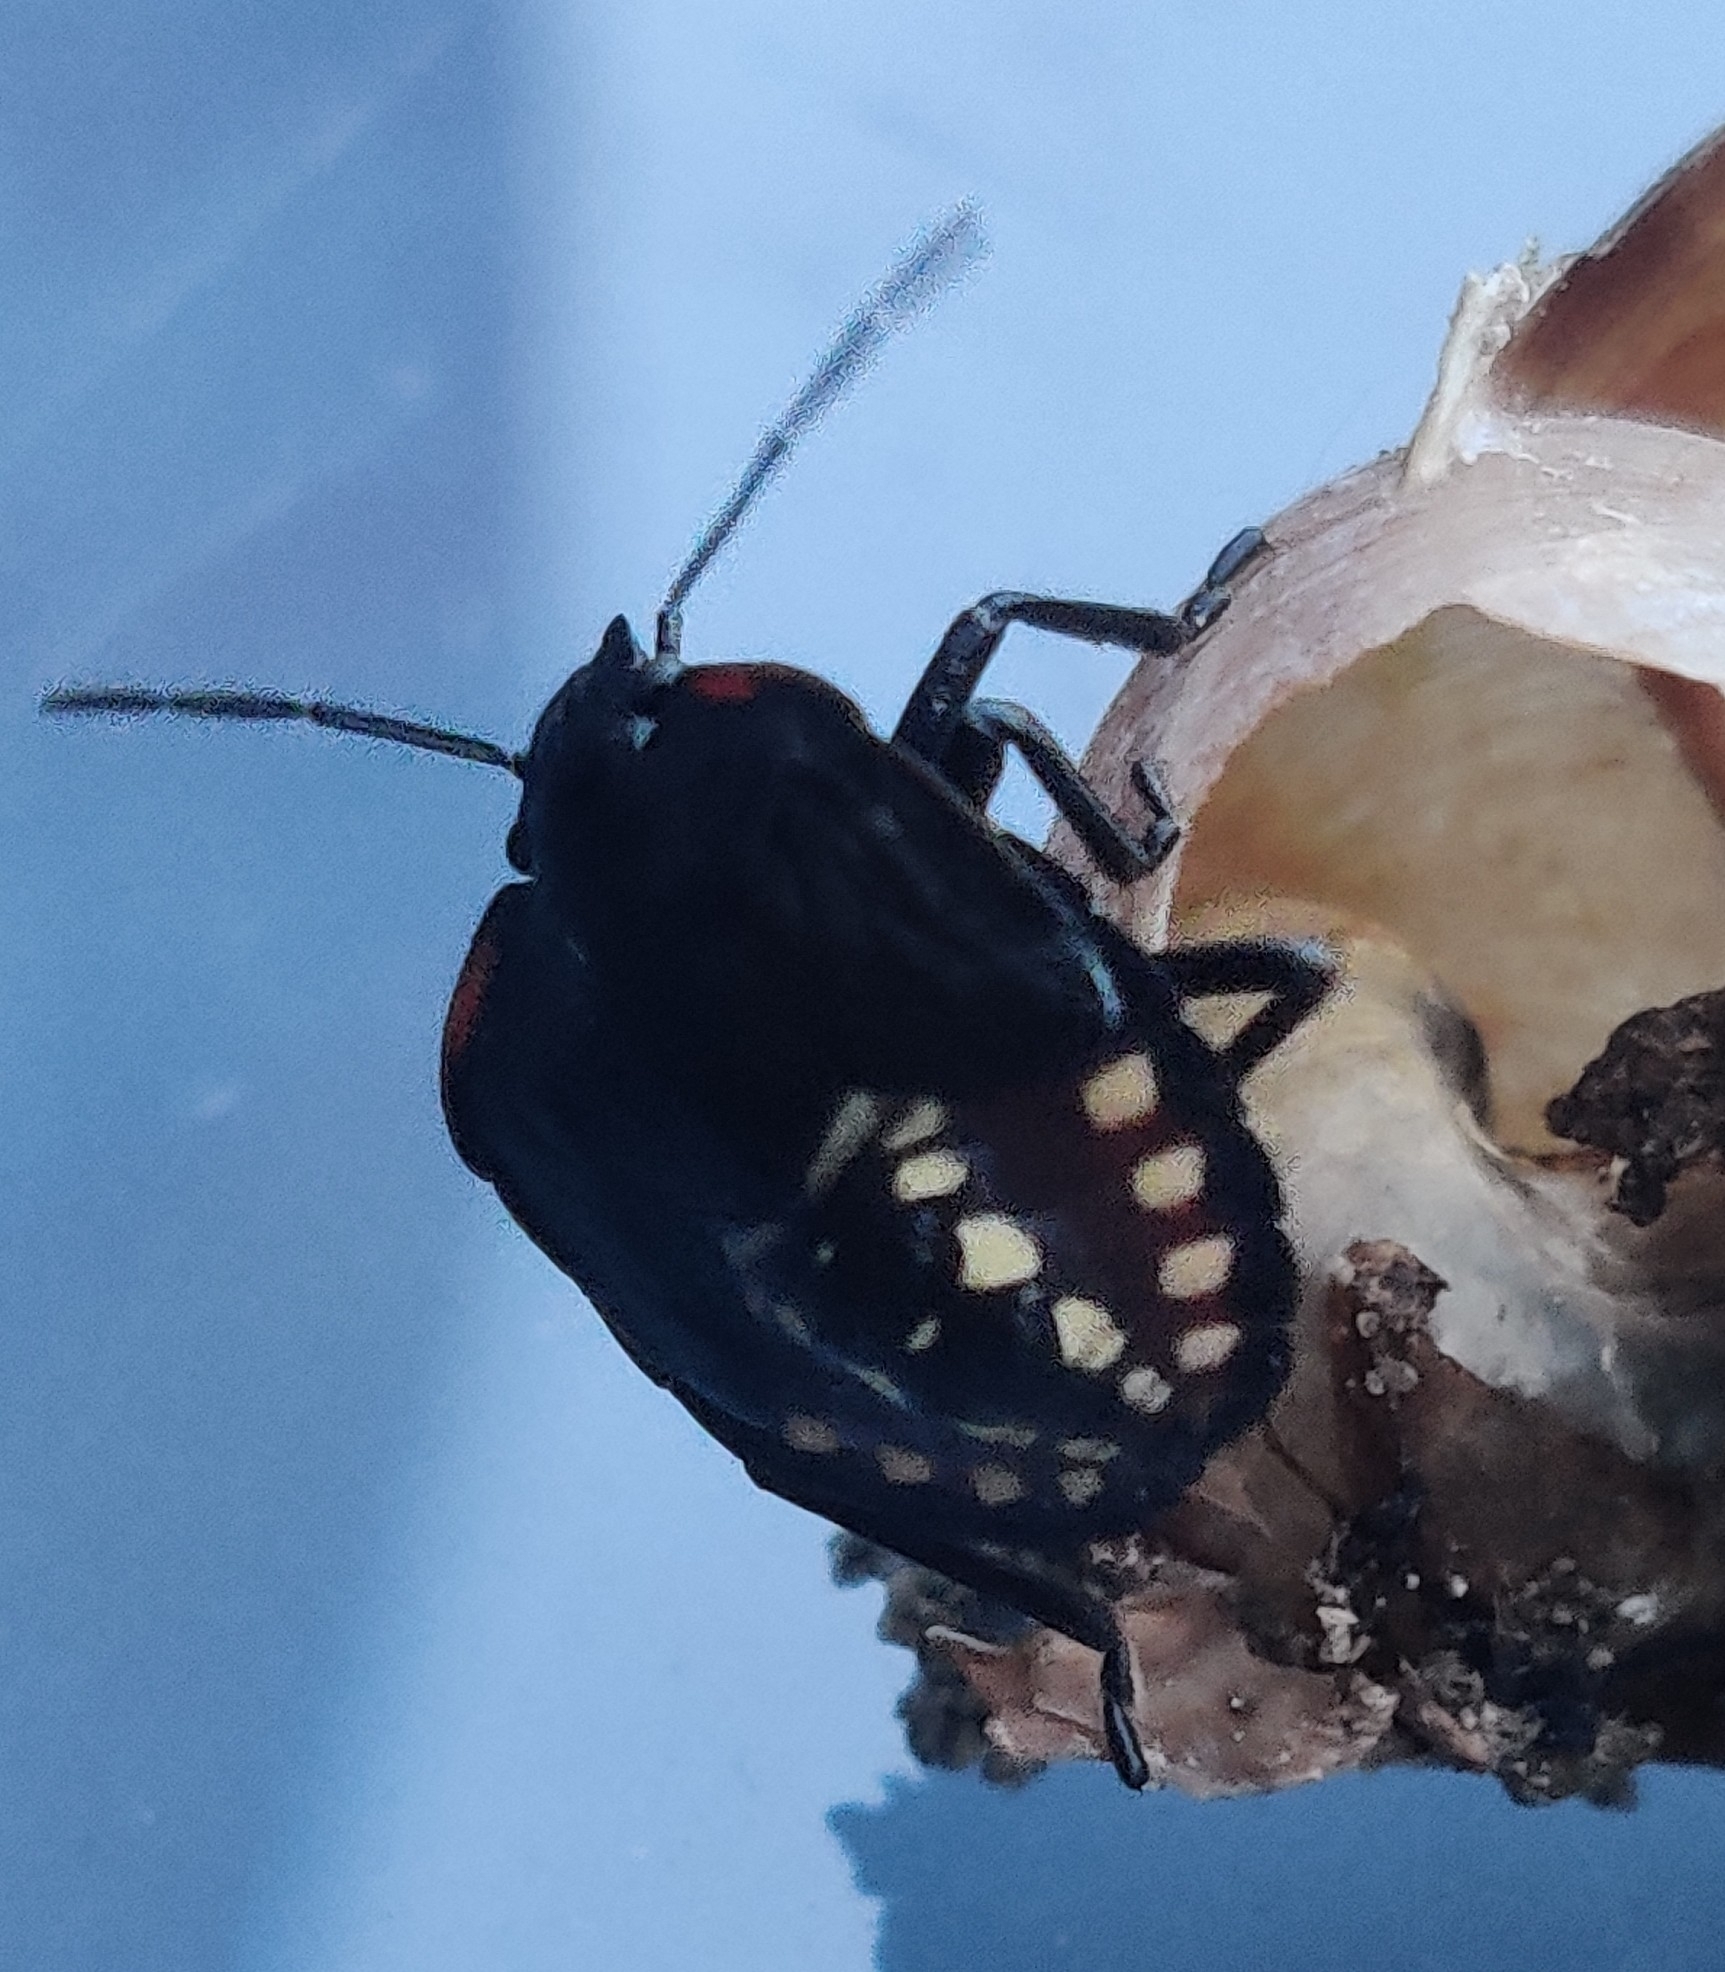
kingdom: Animalia
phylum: Arthropoda
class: Insecta
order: Hemiptera
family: Pentatomidae
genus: Nezara
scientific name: Nezara viridula
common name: Southern green stink bug
